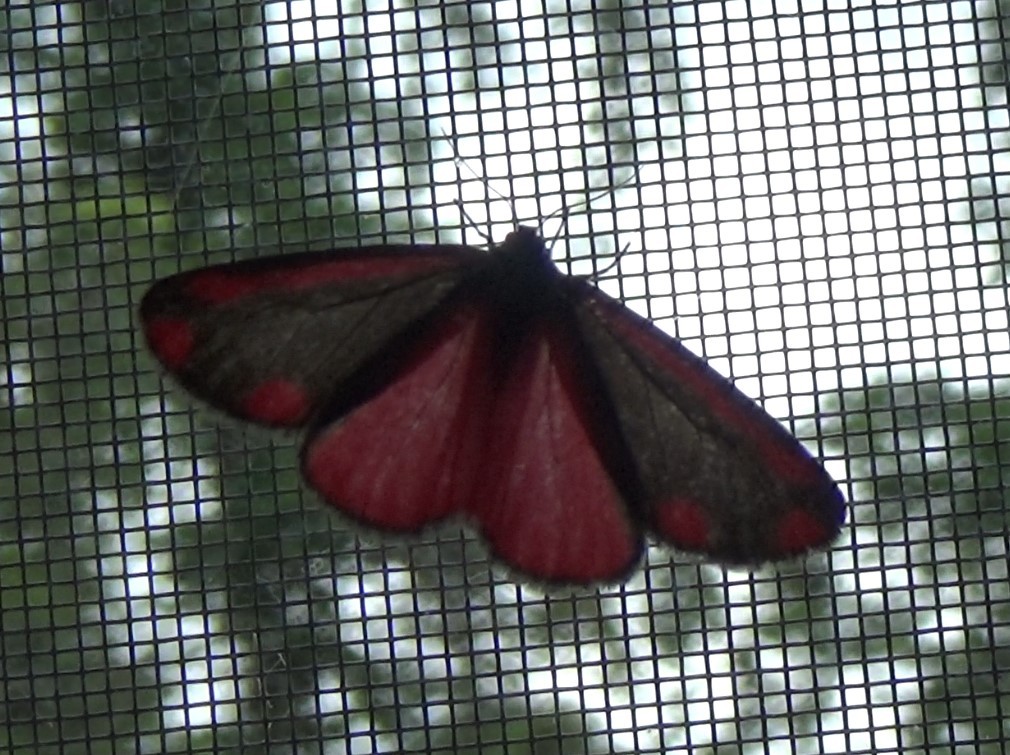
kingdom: Animalia
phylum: Arthropoda
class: Insecta
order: Lepidoptera
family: Erebidae
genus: Tyria
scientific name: Tyria jacobaeae
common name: Cinnabar
